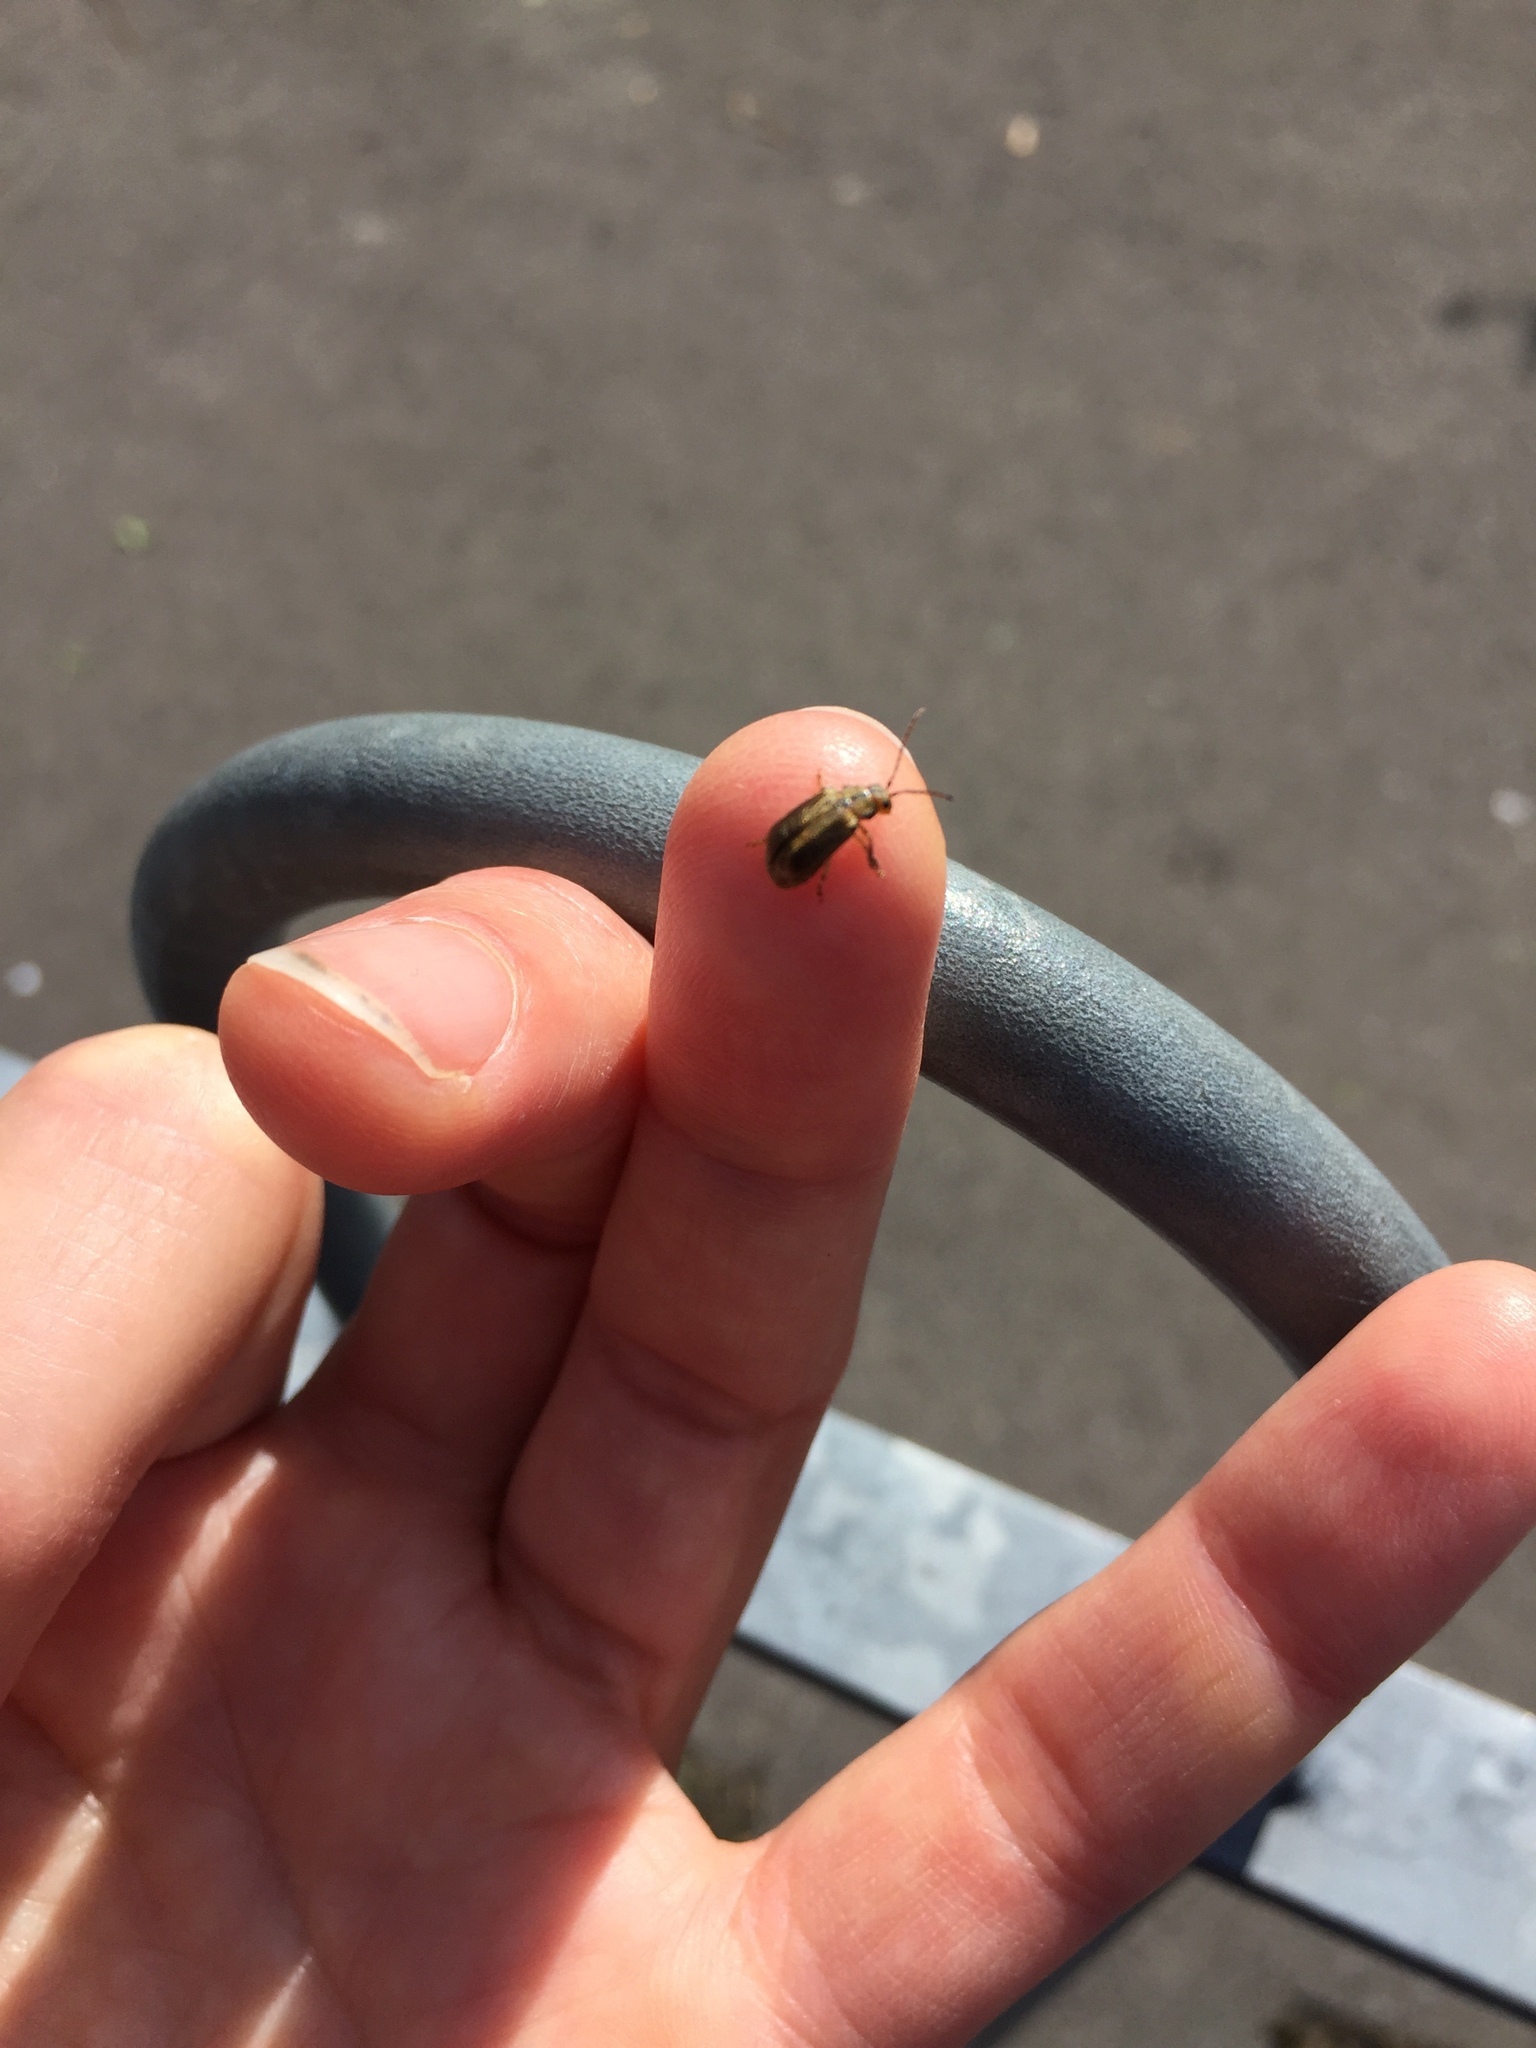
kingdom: Animalia
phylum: Arthropoda
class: Insecta
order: Coleoptera
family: Chrysomelidae
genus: Pyrrhalta
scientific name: Pyrrhalta viburni
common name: Guelder-rose leaf beetle
